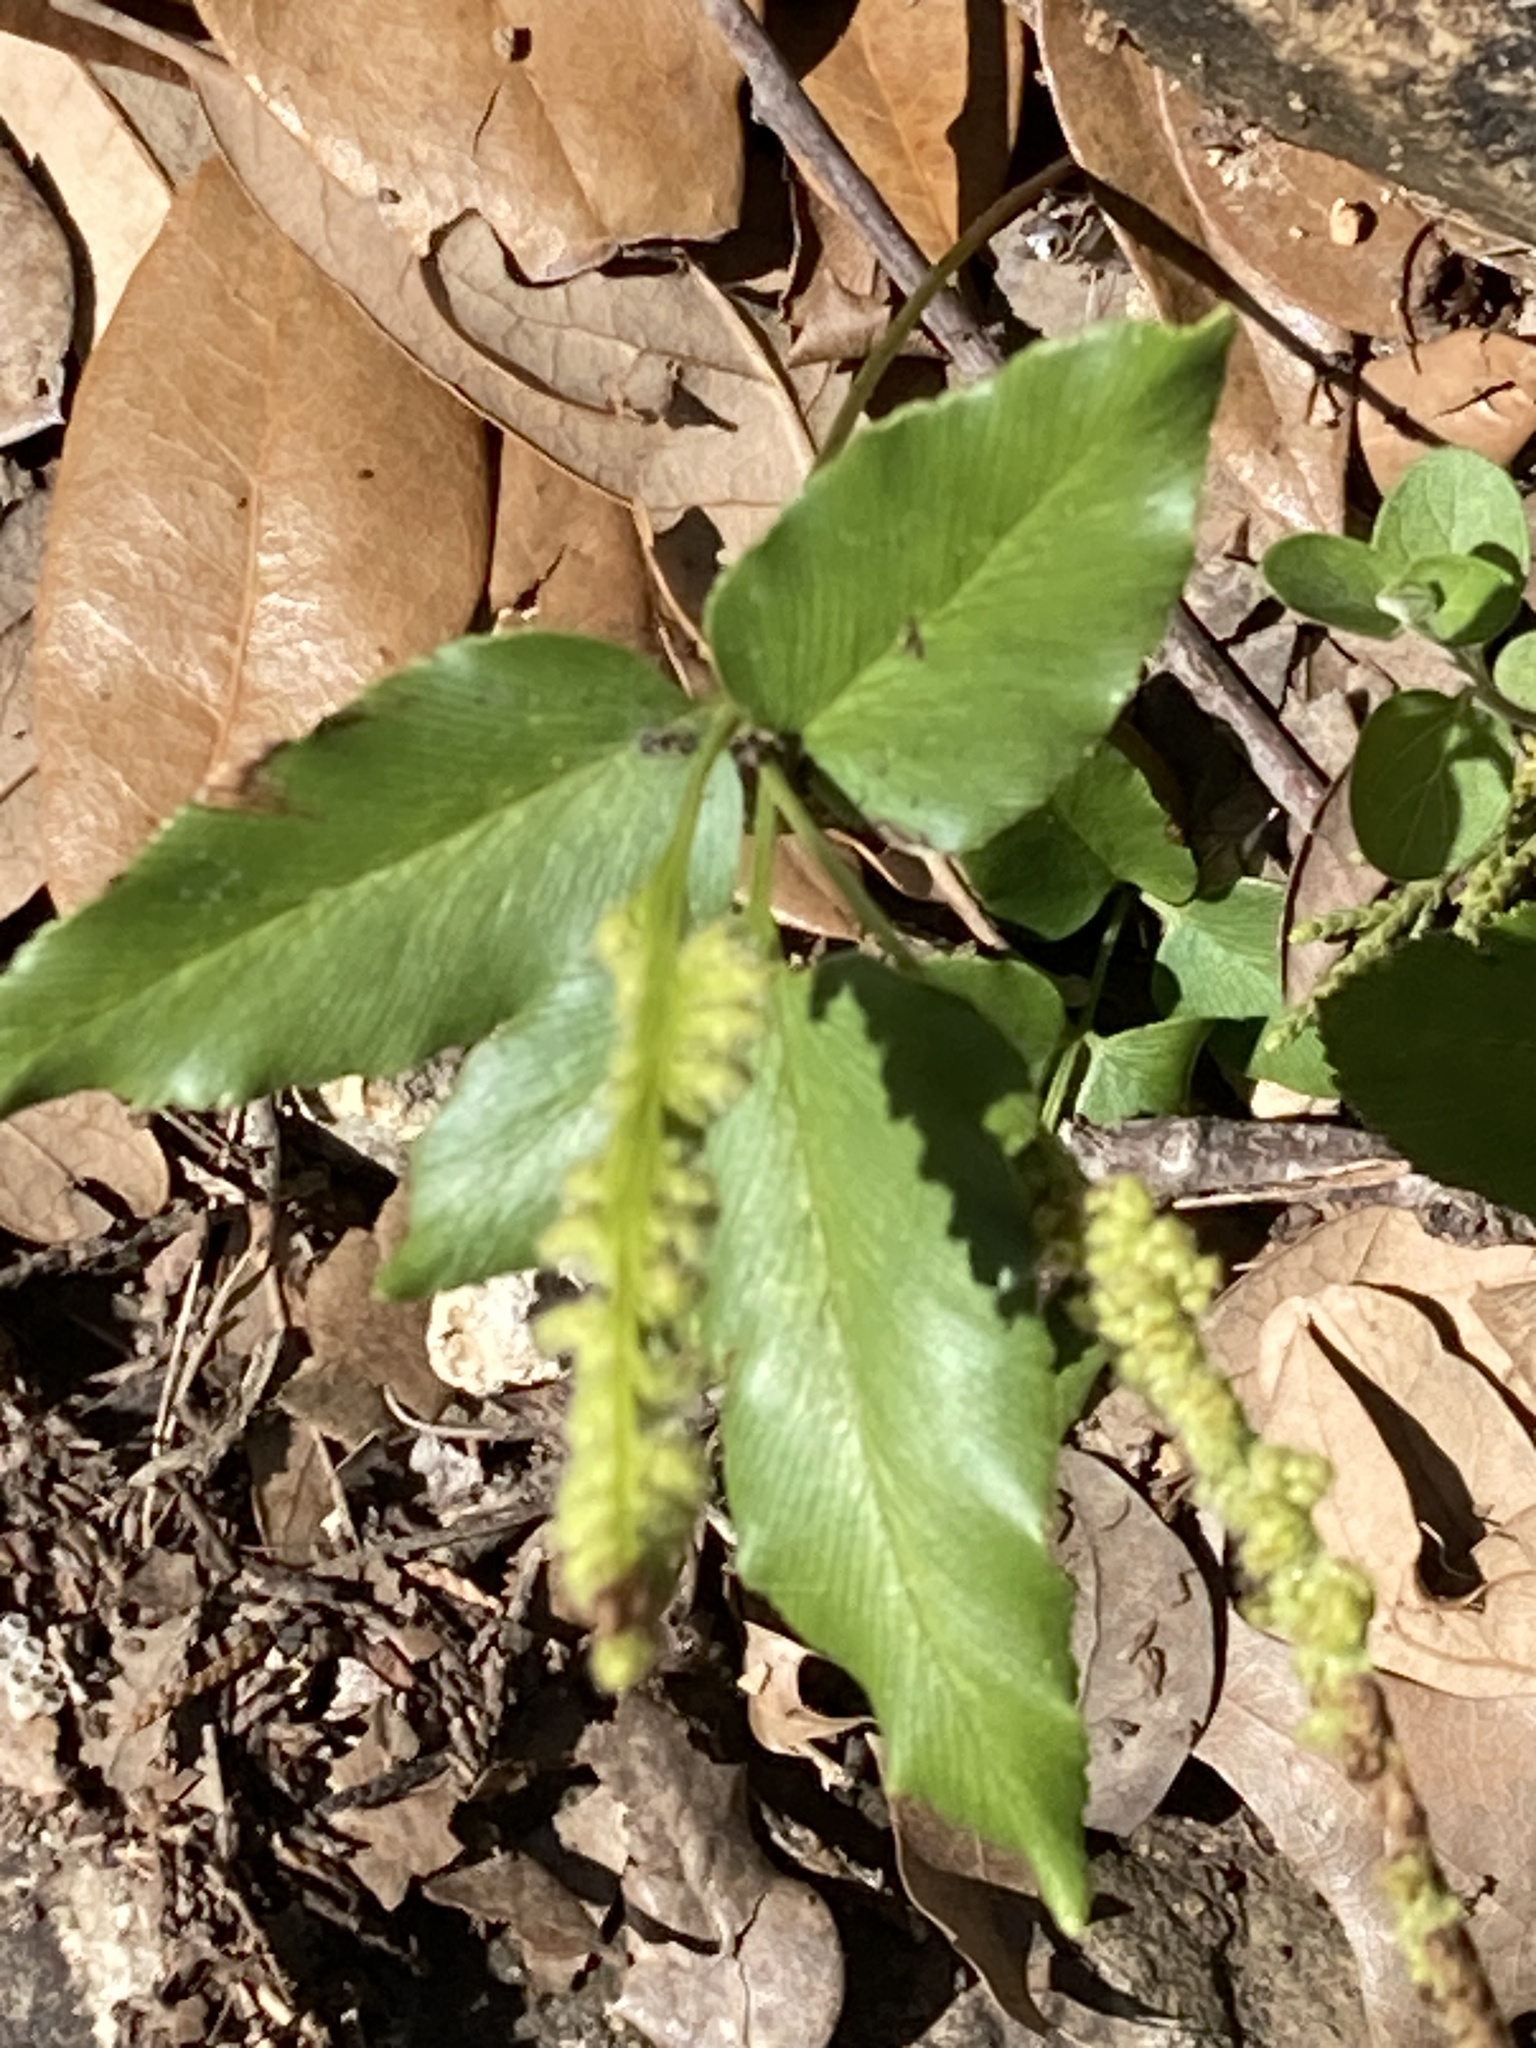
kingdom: Plantae
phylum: Tracheophyta
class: Polypodiopsida
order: Schizaeales
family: Anemiaceae
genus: Anemia
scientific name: Anemia mexicana
